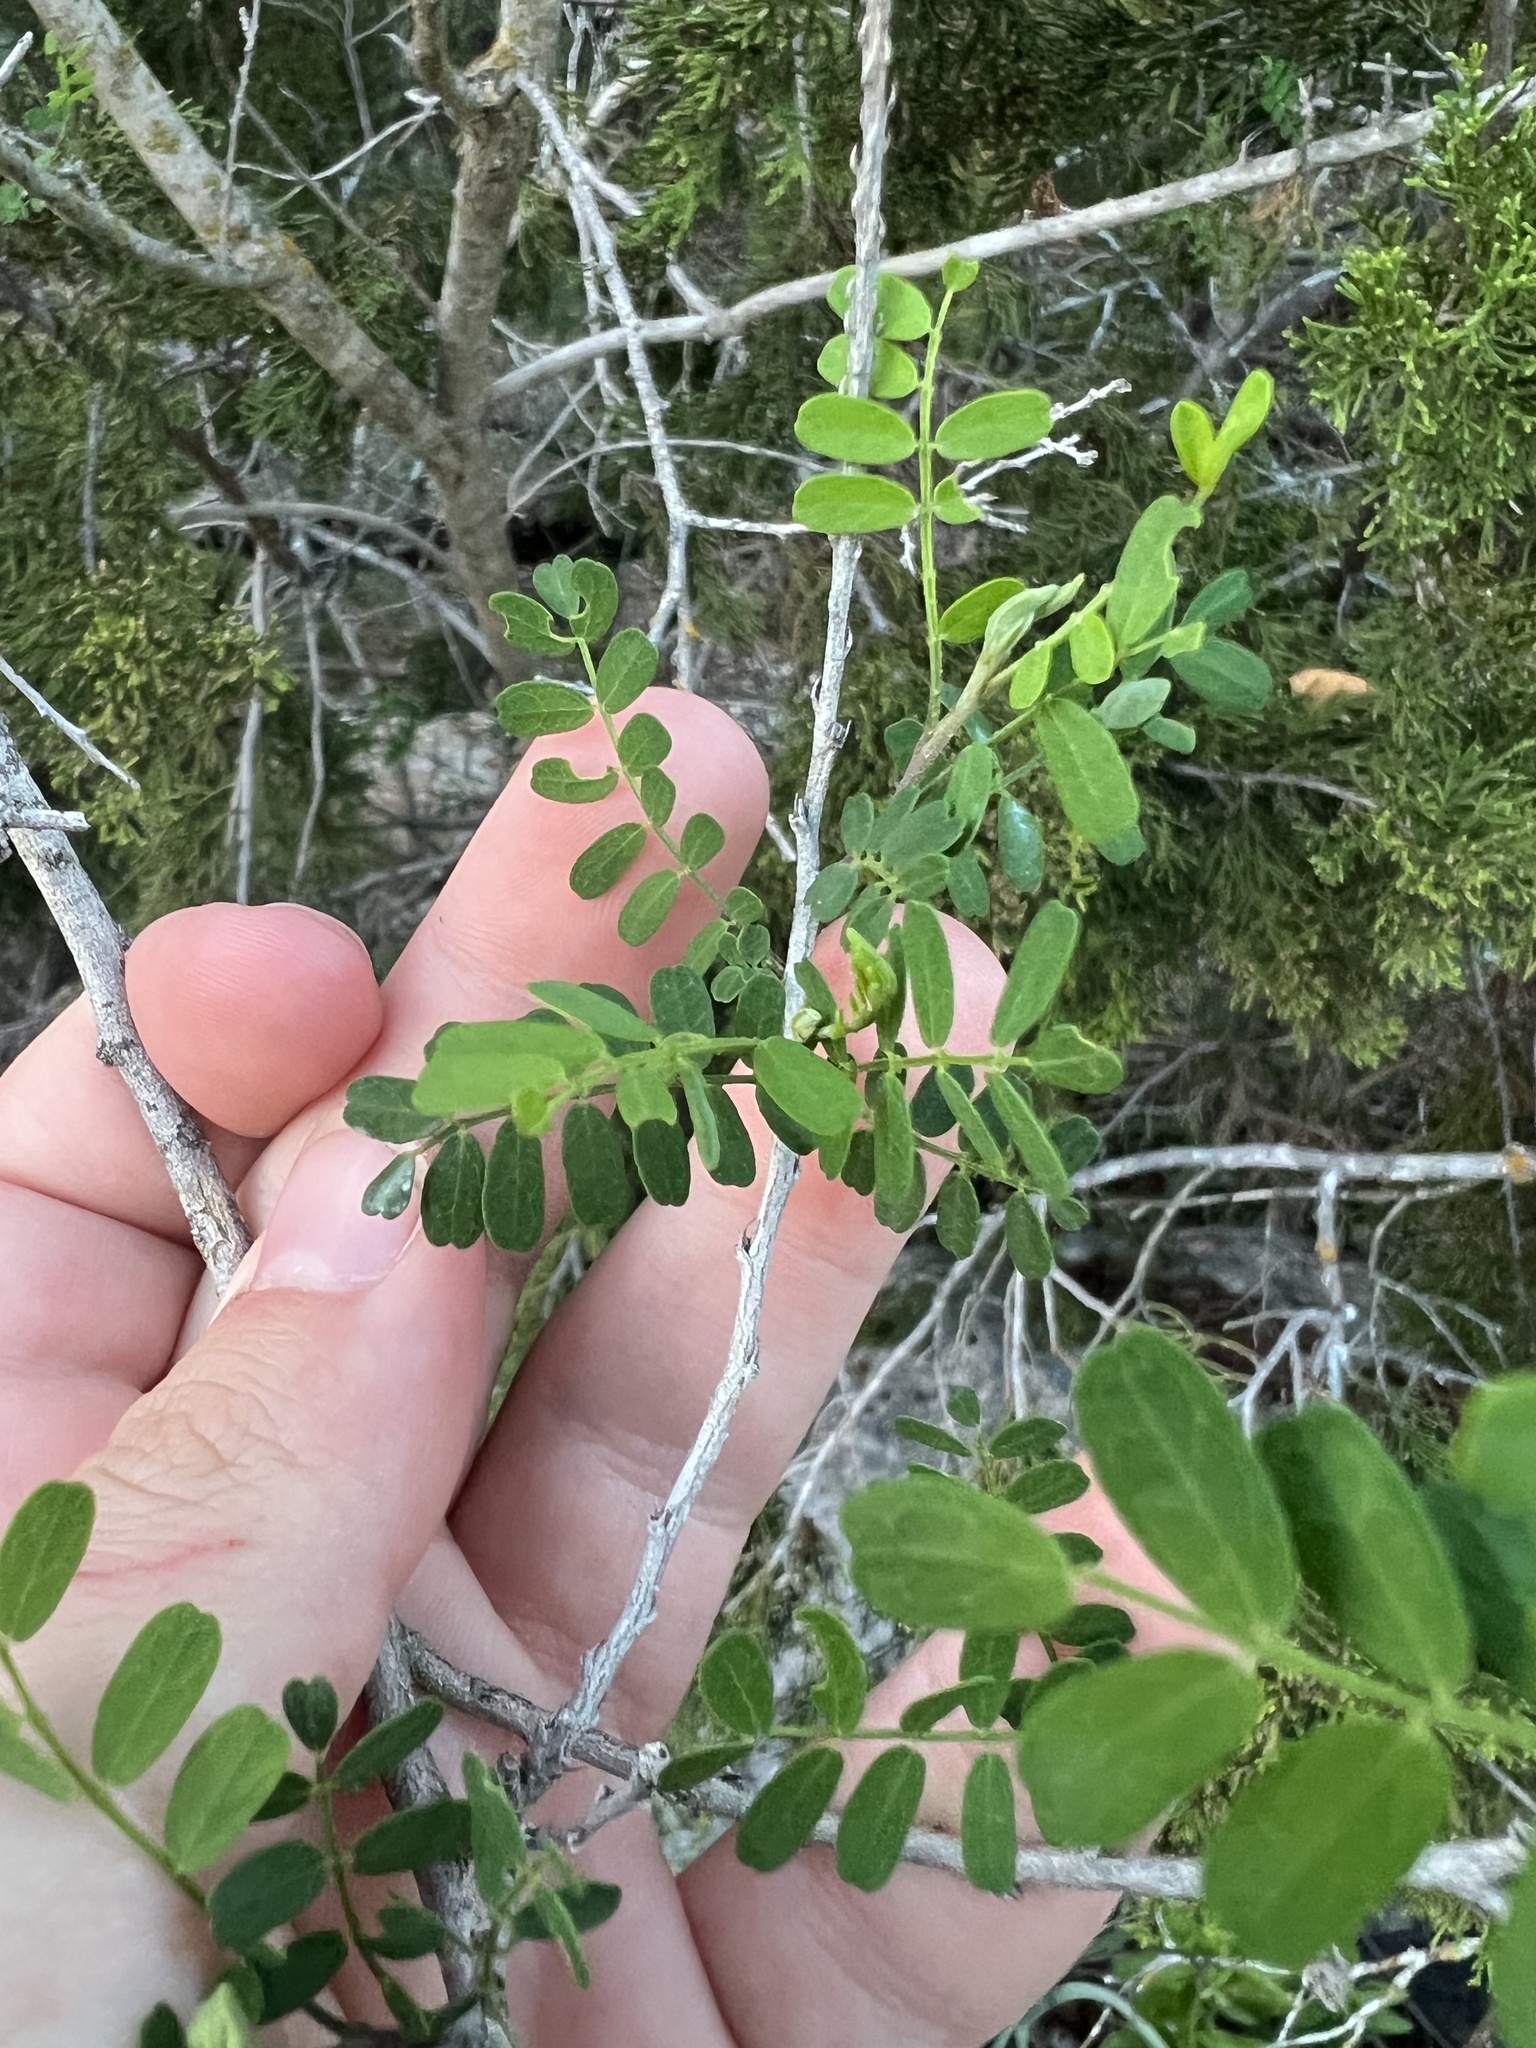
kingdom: Plantae
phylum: Tracheophyta
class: Magnoliopsida
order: Fabales
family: Fabaceae
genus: Eysenhardtia
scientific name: Eysenhardtia texana
